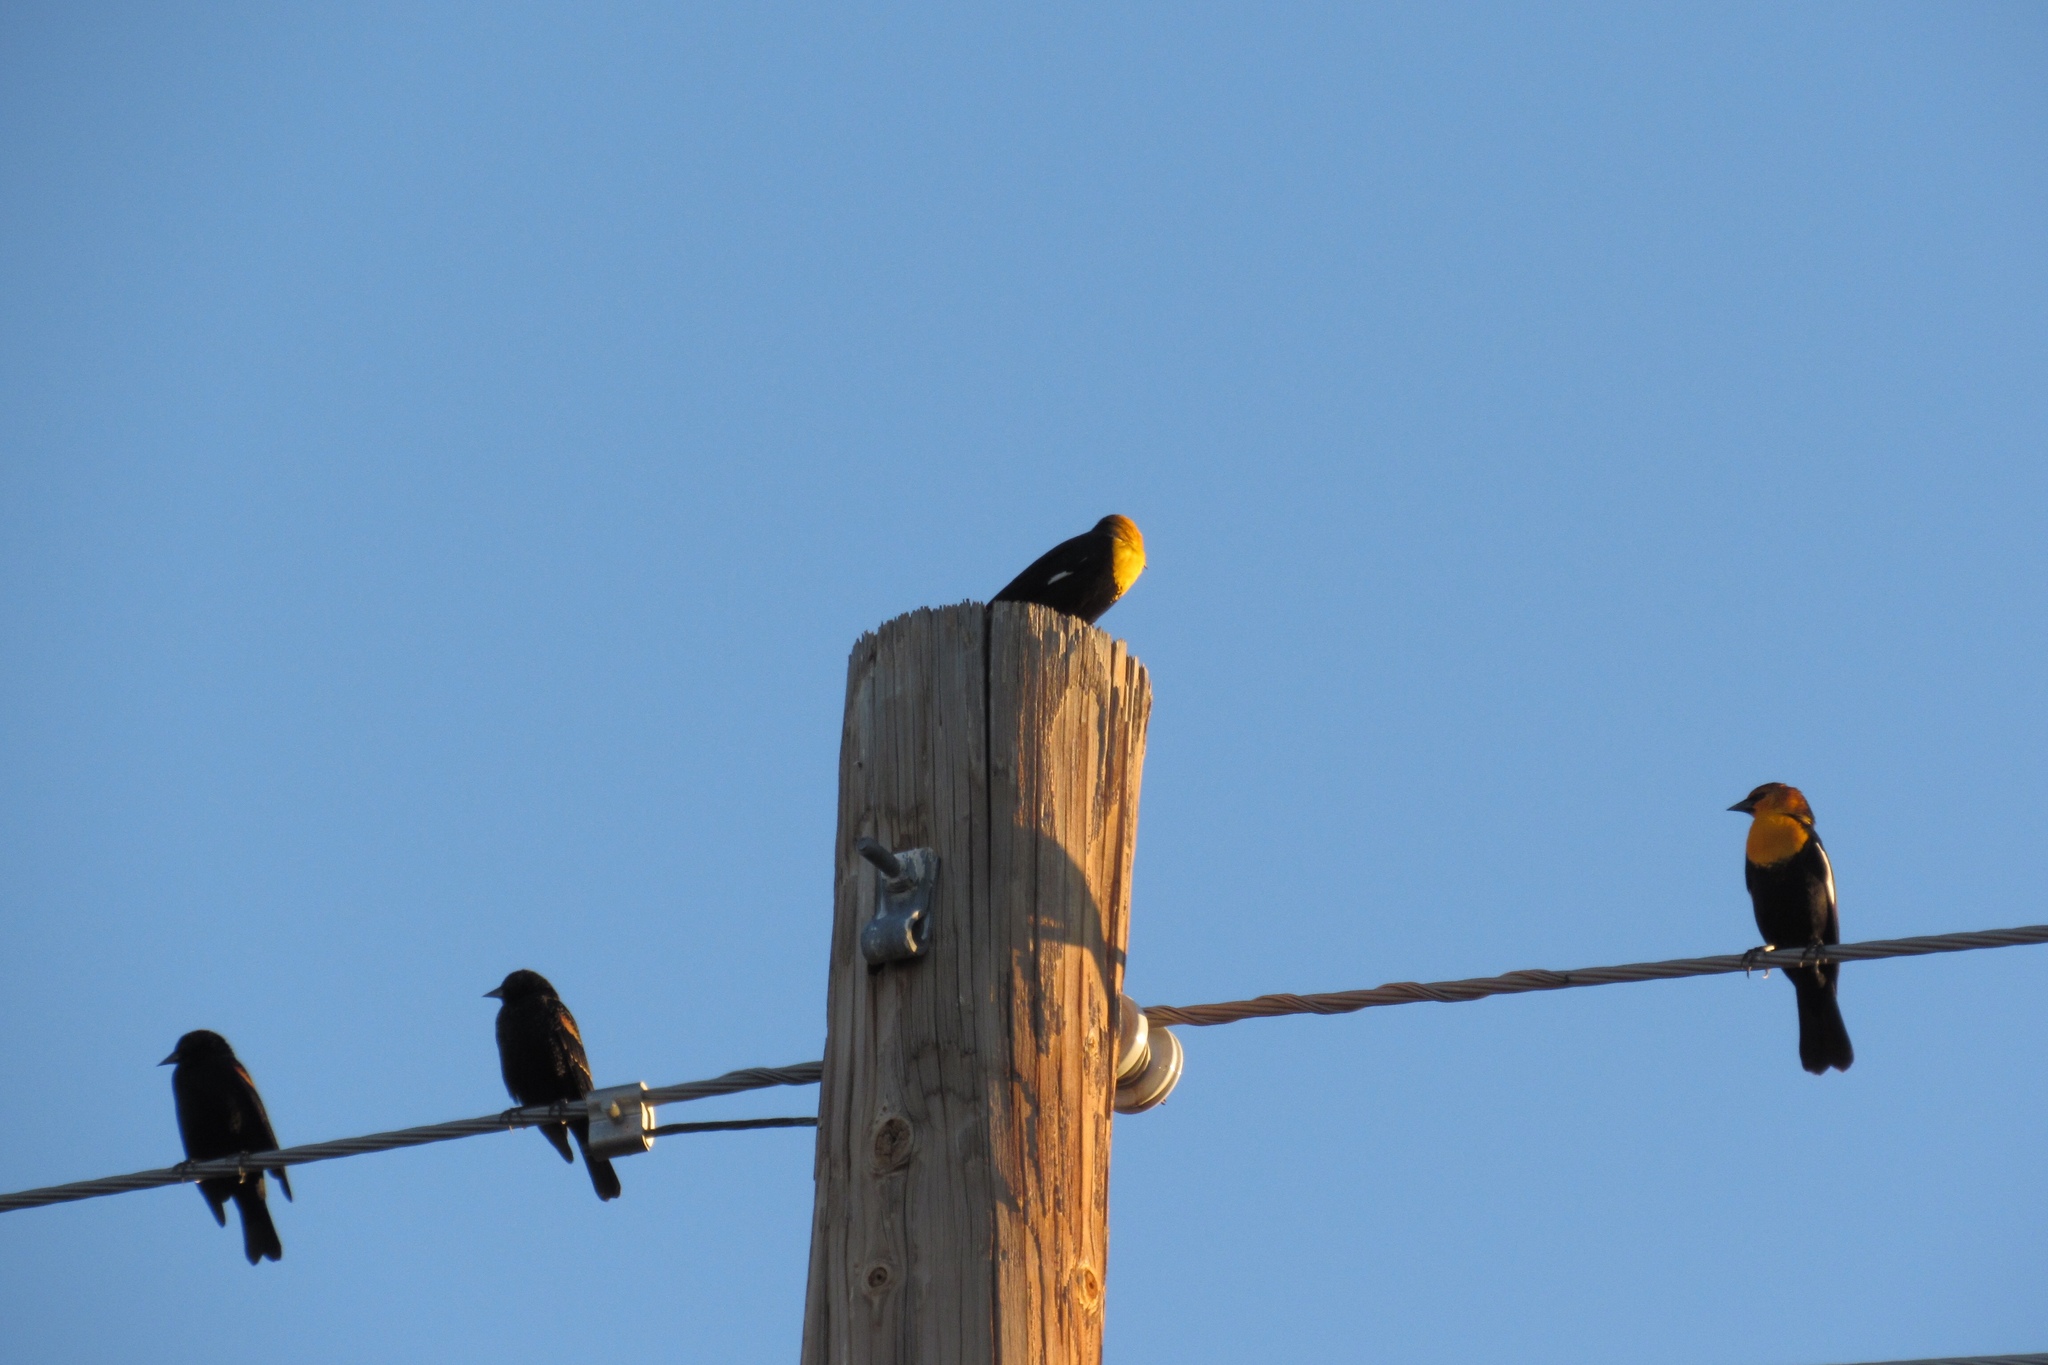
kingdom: Animalia
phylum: Chordata
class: Aves
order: Passeriformes
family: Icteridae
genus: Xanthocephalus
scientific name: Xanthocephalus xanthocephalus
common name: Yellow-headed blackbird
